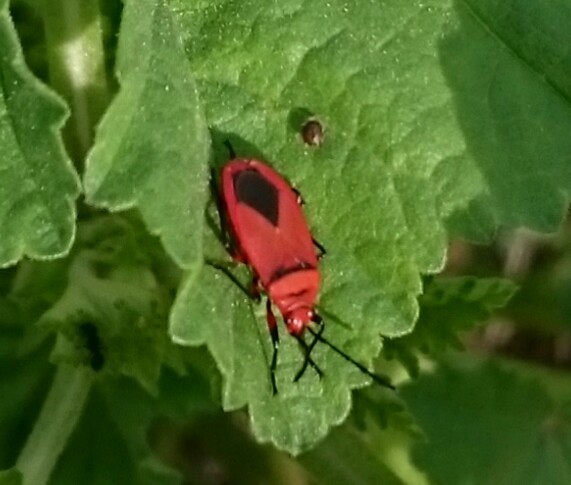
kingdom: Animalia
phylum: Arthropoda
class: Insecta
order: Hemiptera
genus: Cenaeus
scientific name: Cenaeus
